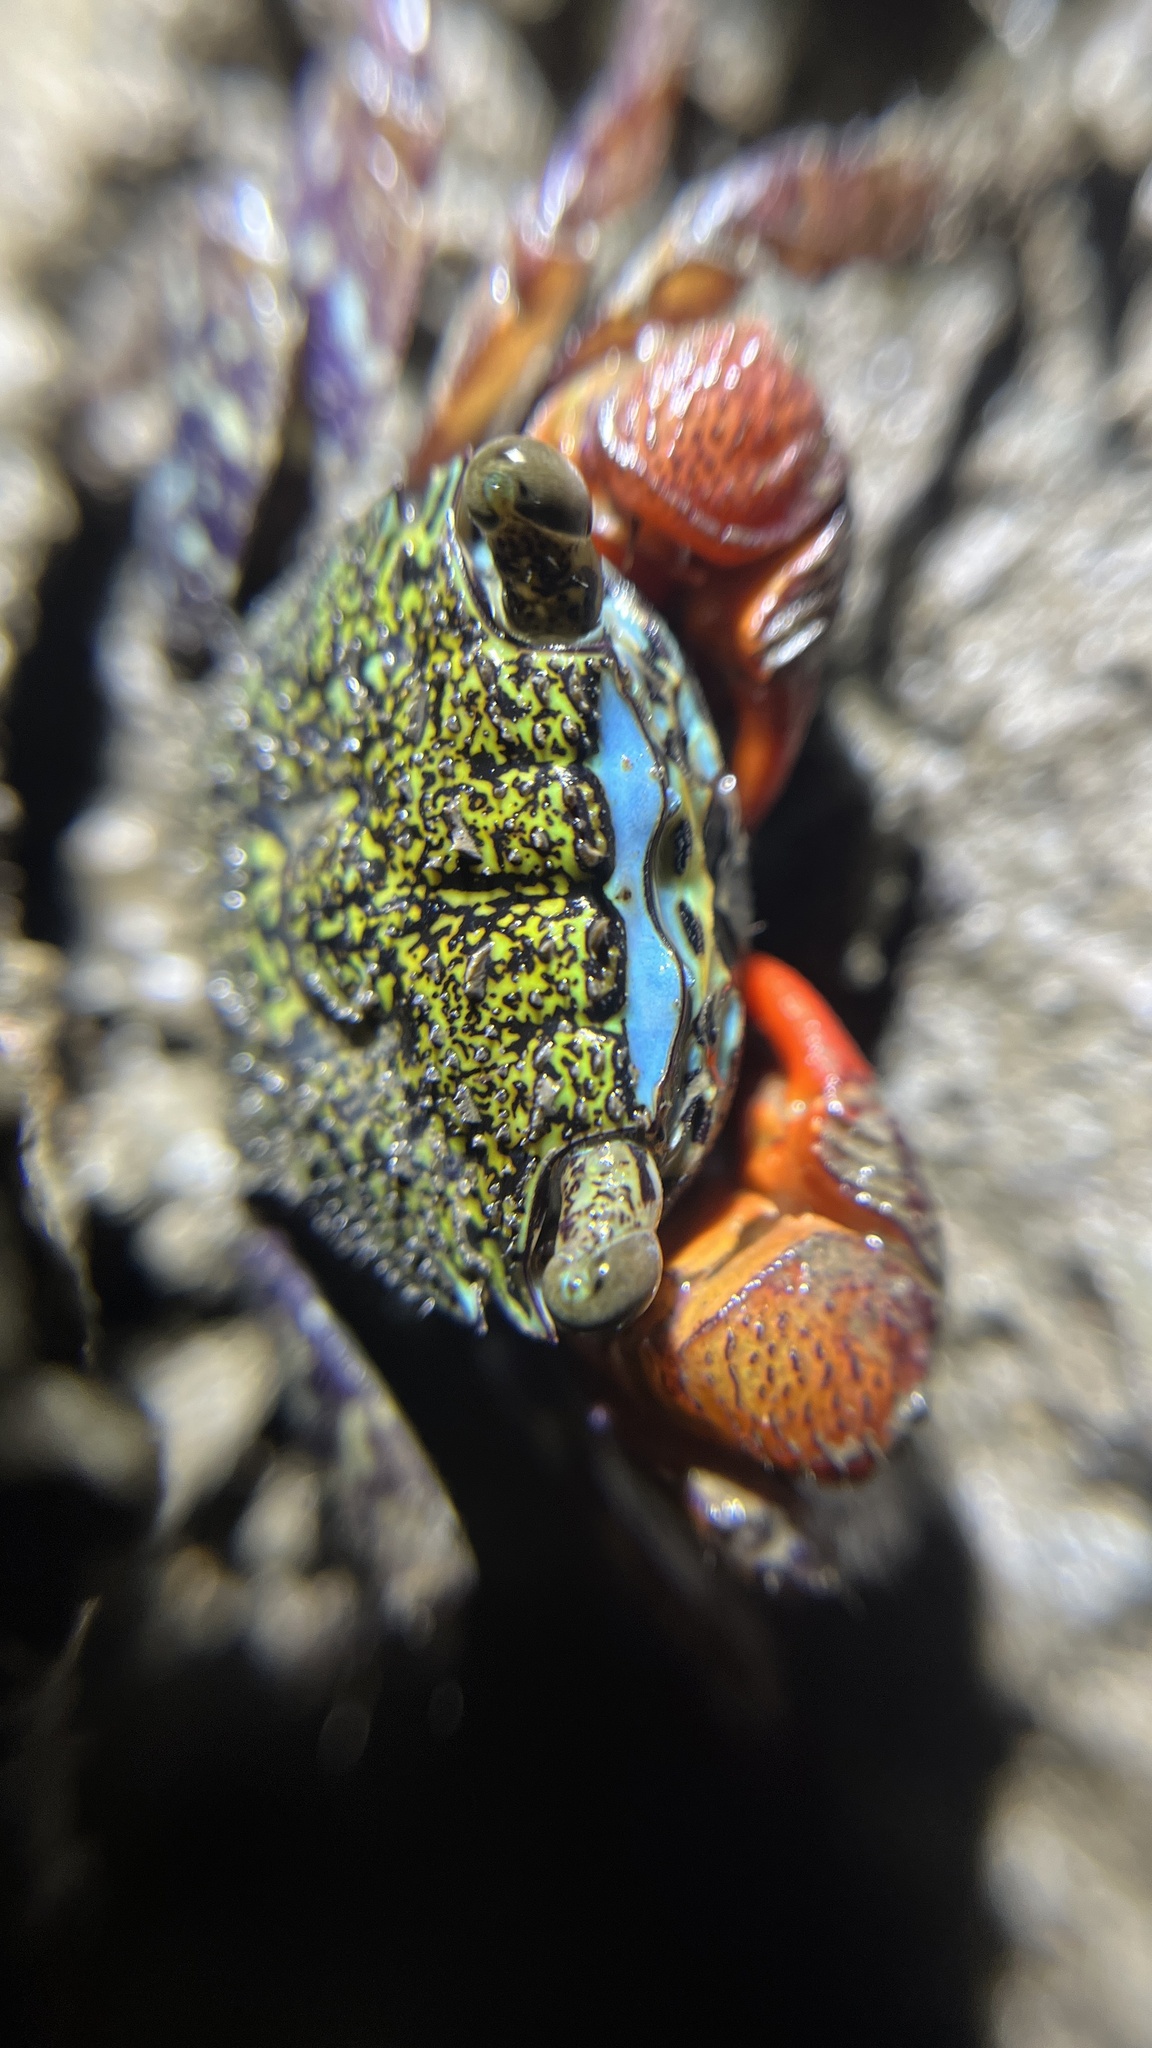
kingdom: Animalia
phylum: Arthropoda
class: Malacostraca
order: Decapoda
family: Sesarmidae
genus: Parasesarma
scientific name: Parasesarma eumolpe
